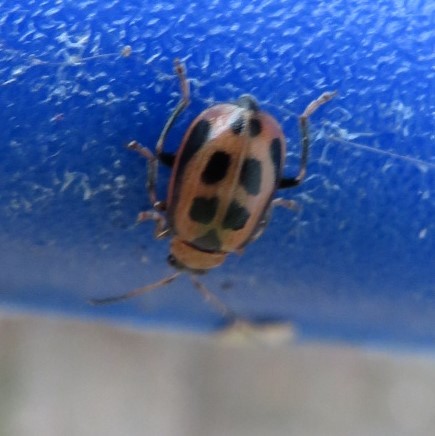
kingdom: Animalia
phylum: Arthropoda
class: Insecta
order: Coleoptera
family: Chrysomelidae
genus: Cerotoma
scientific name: Cerotoma trifurcata
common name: Bean leaf beetle
